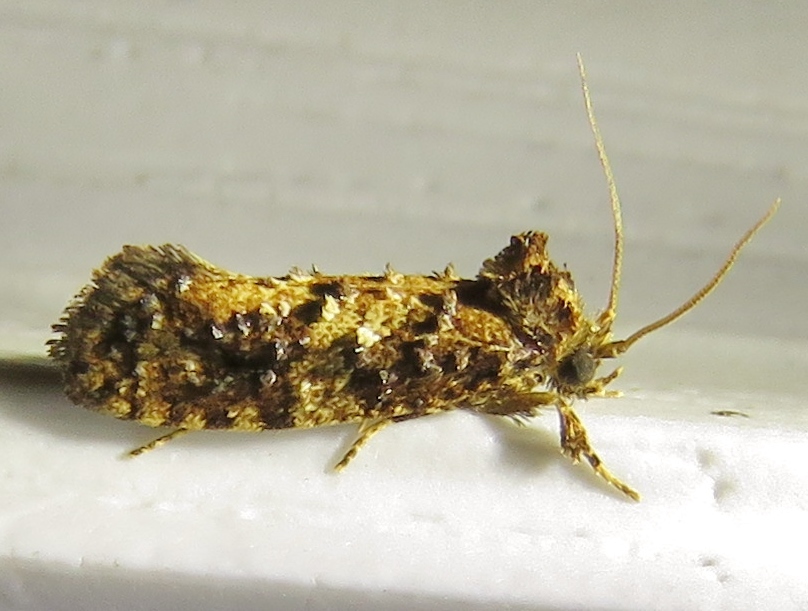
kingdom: Animalia
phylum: Arthropoda
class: Insecta
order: Lepidoptera
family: Tineidae
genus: Acrolophus
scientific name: Acrolophus cressoni
